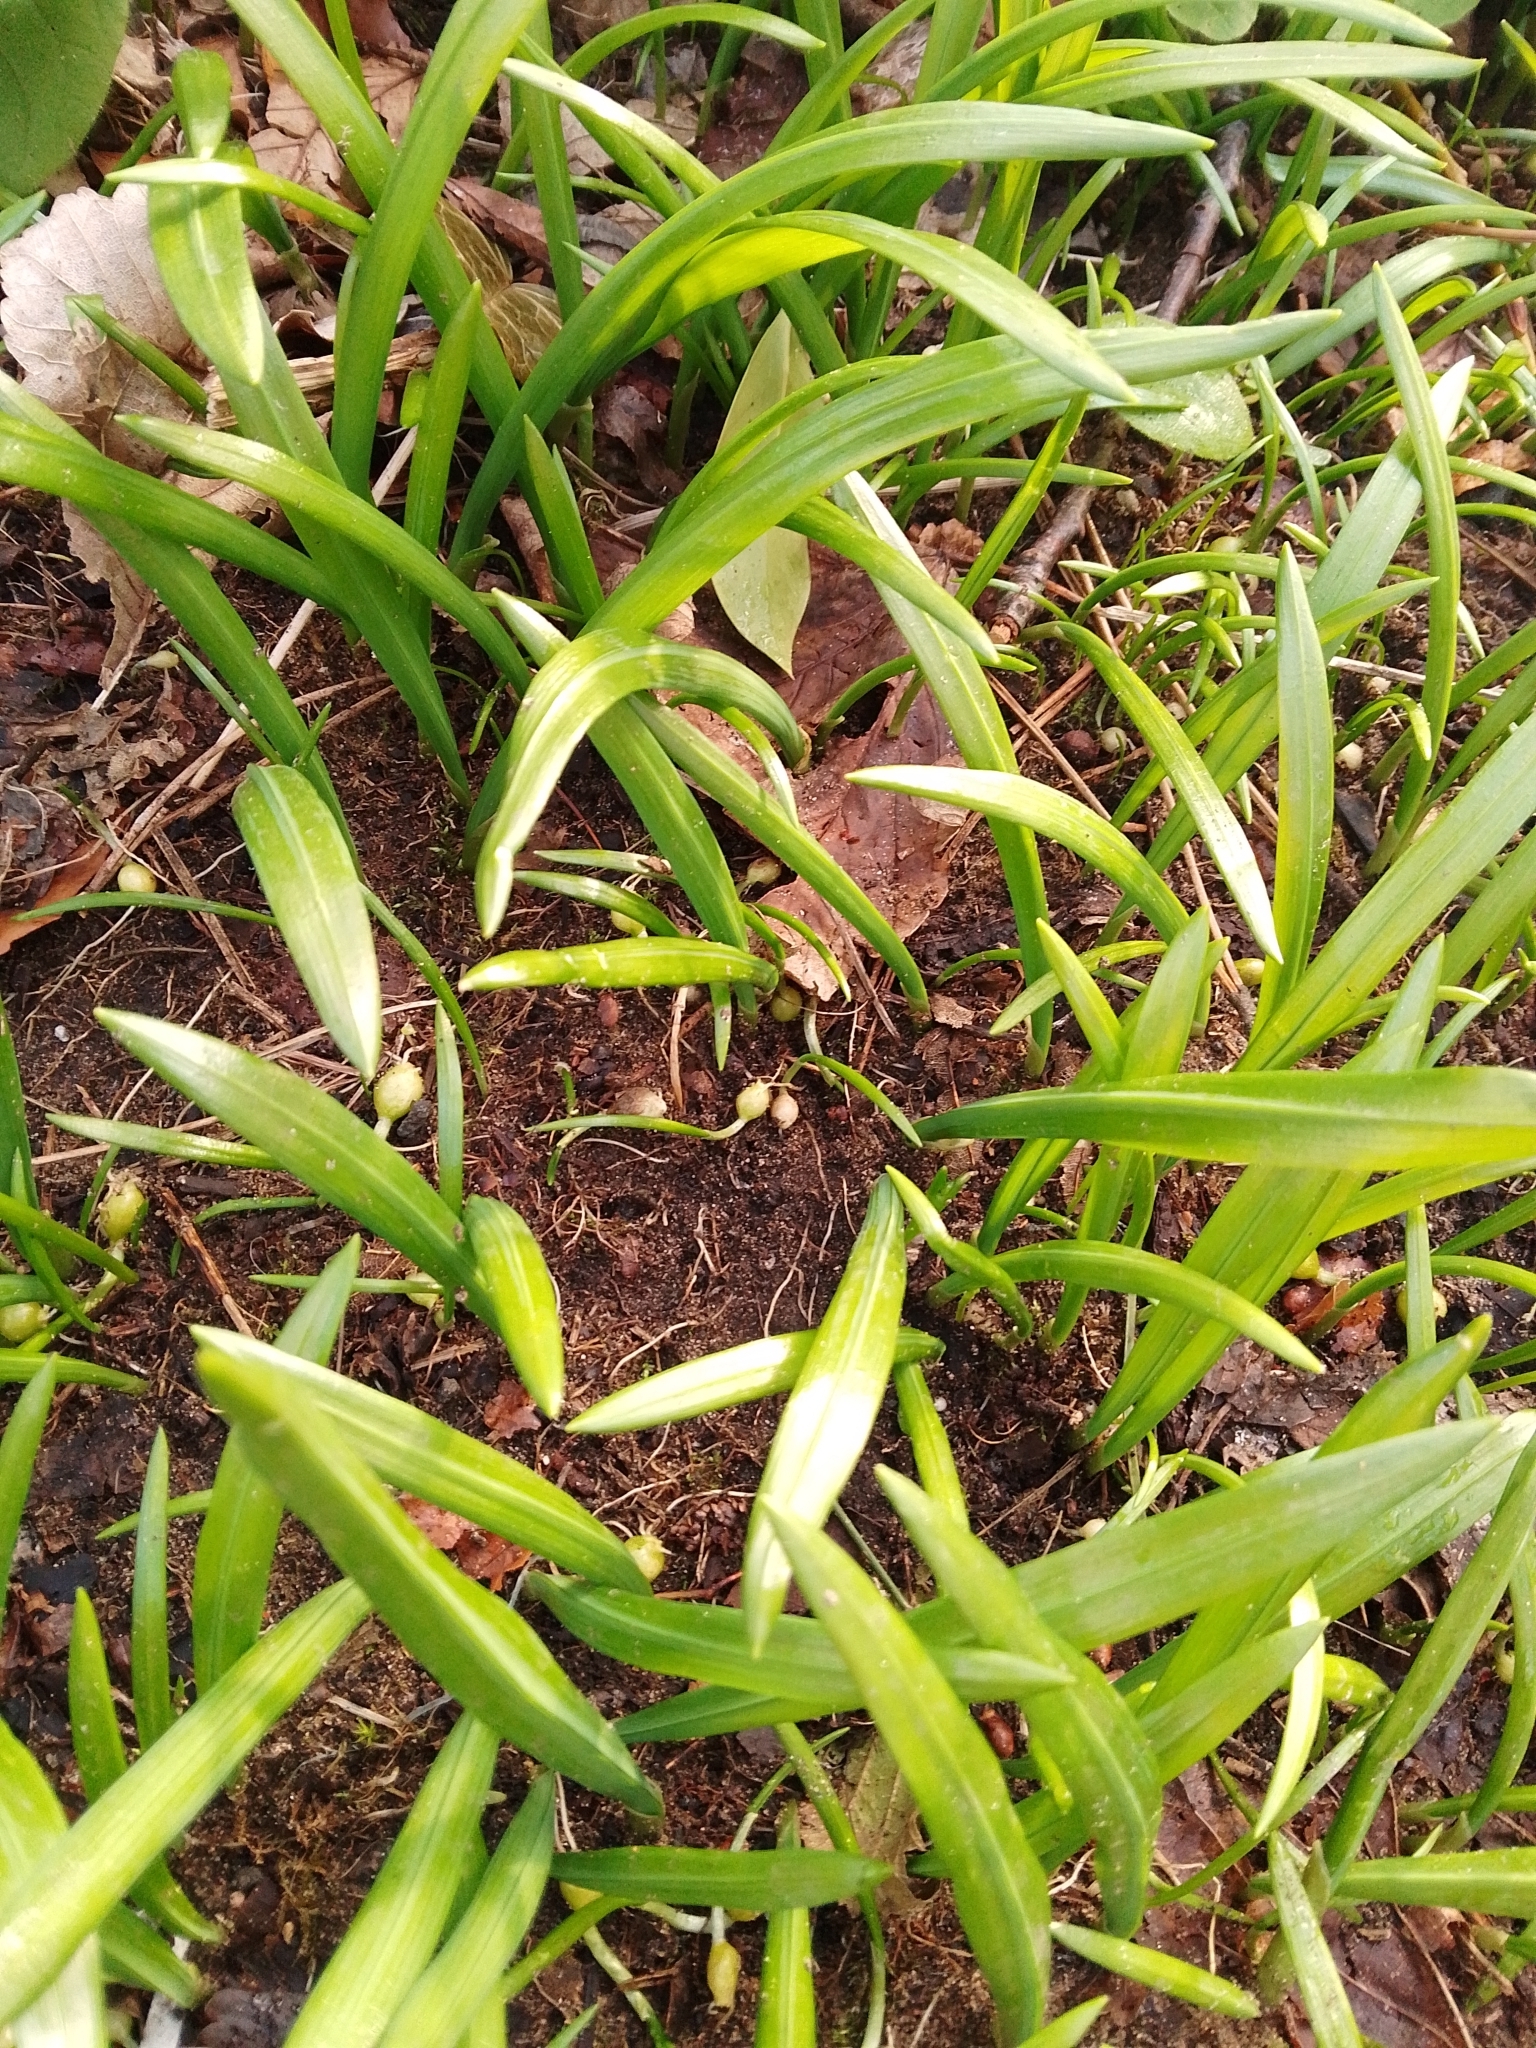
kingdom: Plantae
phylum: Tracheophyta
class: Liliopsida
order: Asparagales
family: Amaryllidaceae
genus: Allium
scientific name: Allium paradoxum
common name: Few-flowered garlic
